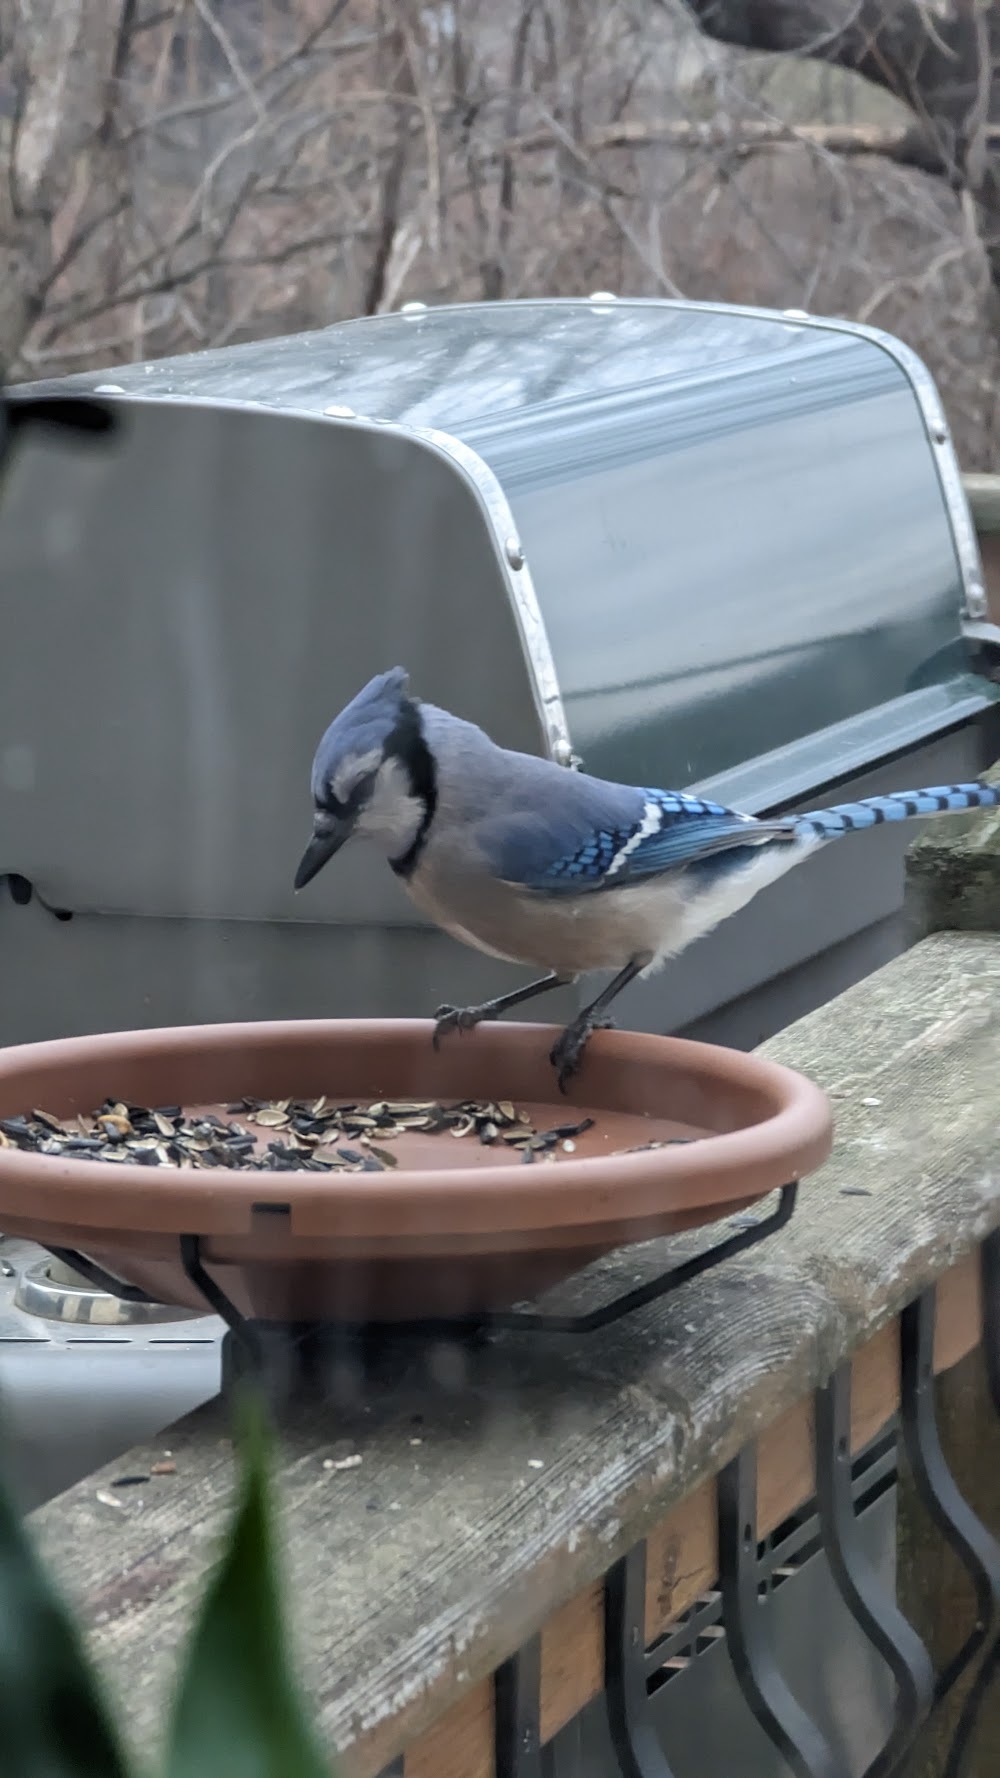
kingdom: Animalia
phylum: Chordata
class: Aves
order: Passeriformes
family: Corvidae
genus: Cyanocitta
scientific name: Cyanocitta cristata
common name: Blue jay
